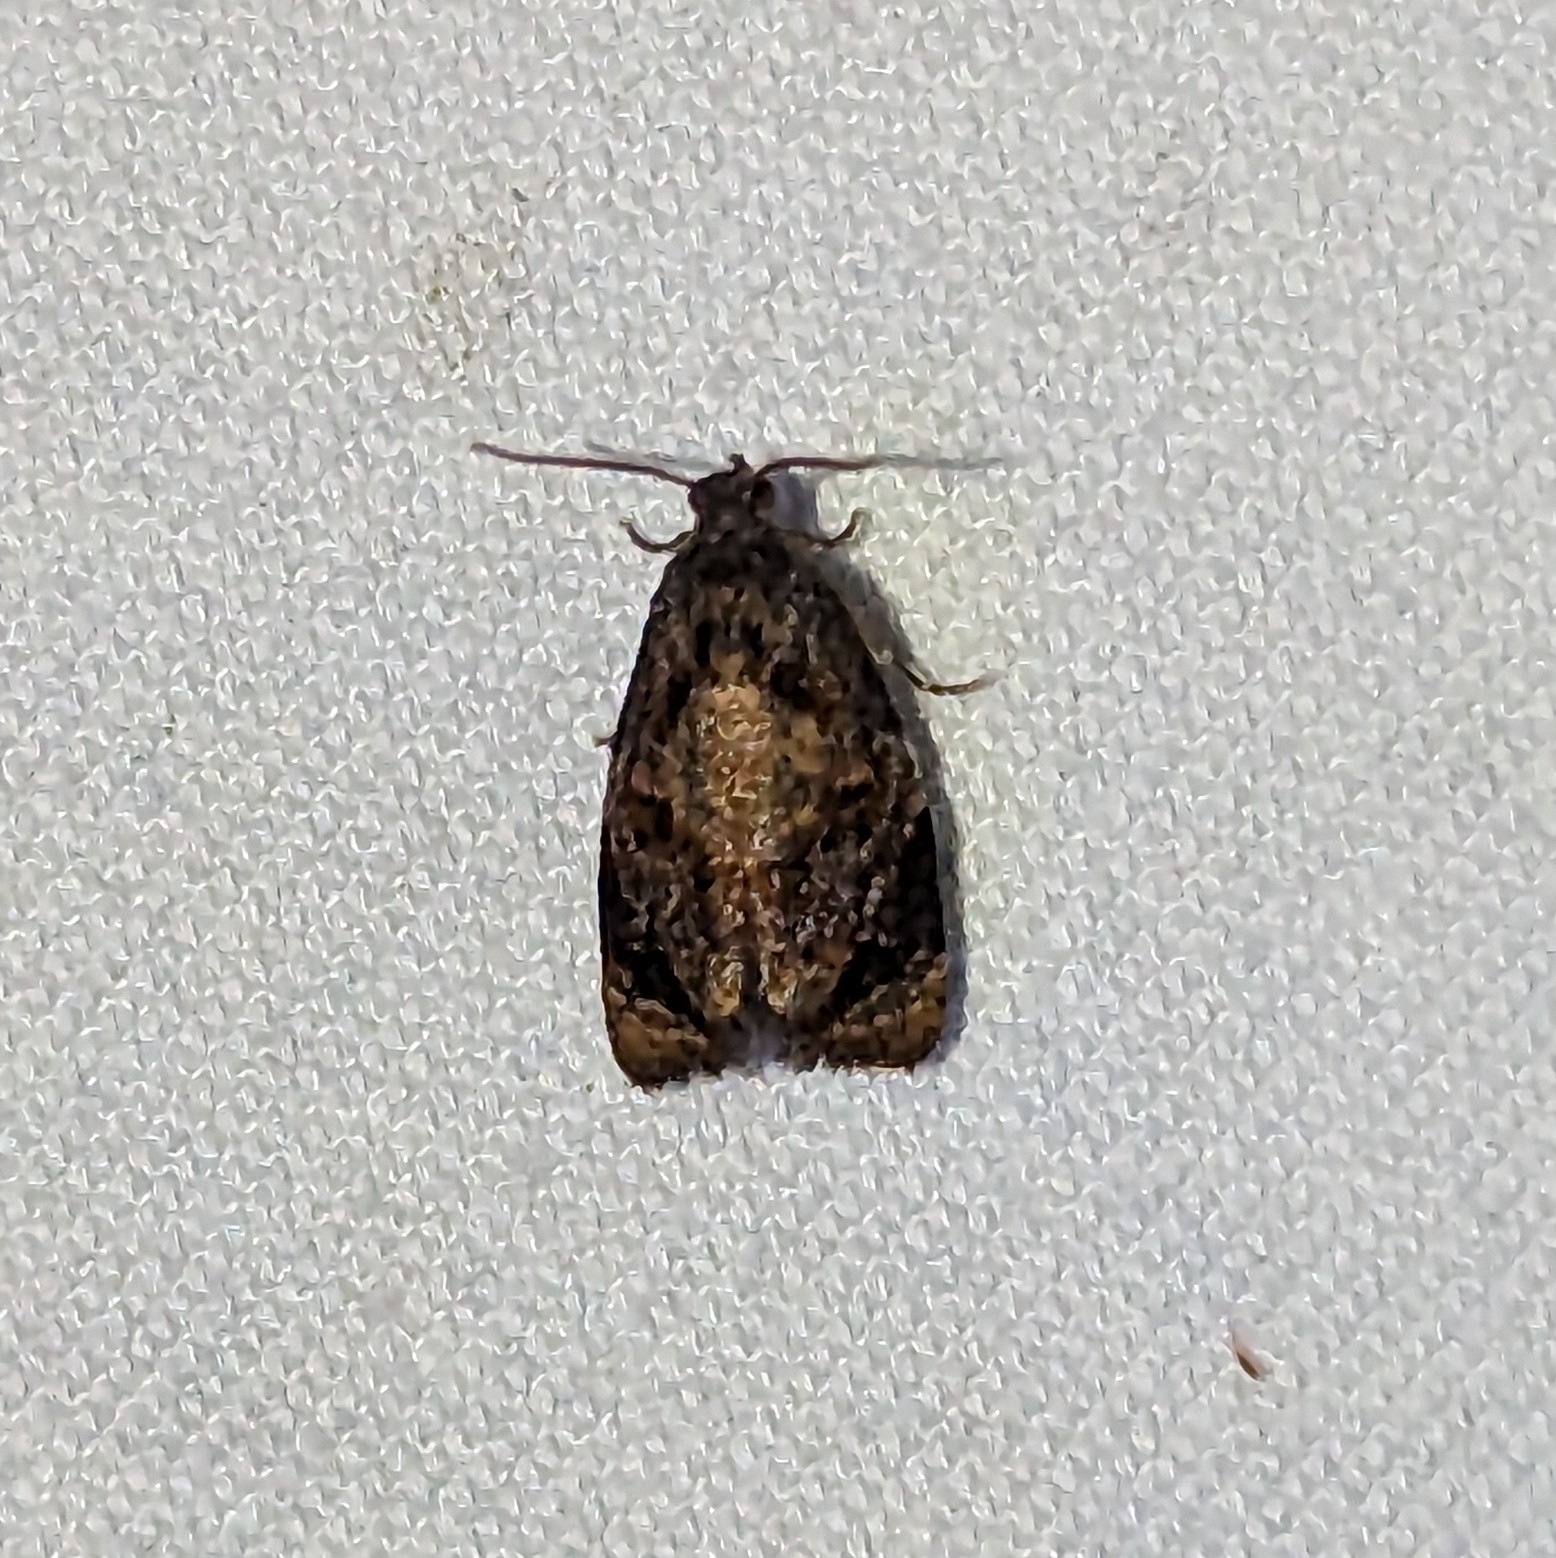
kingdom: Animalia
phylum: Arthropoda
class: Insecta
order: Lepidoptera
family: Tortricidae
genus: Ditula
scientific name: Ditula angustiorana
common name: Red-barred tortrix
